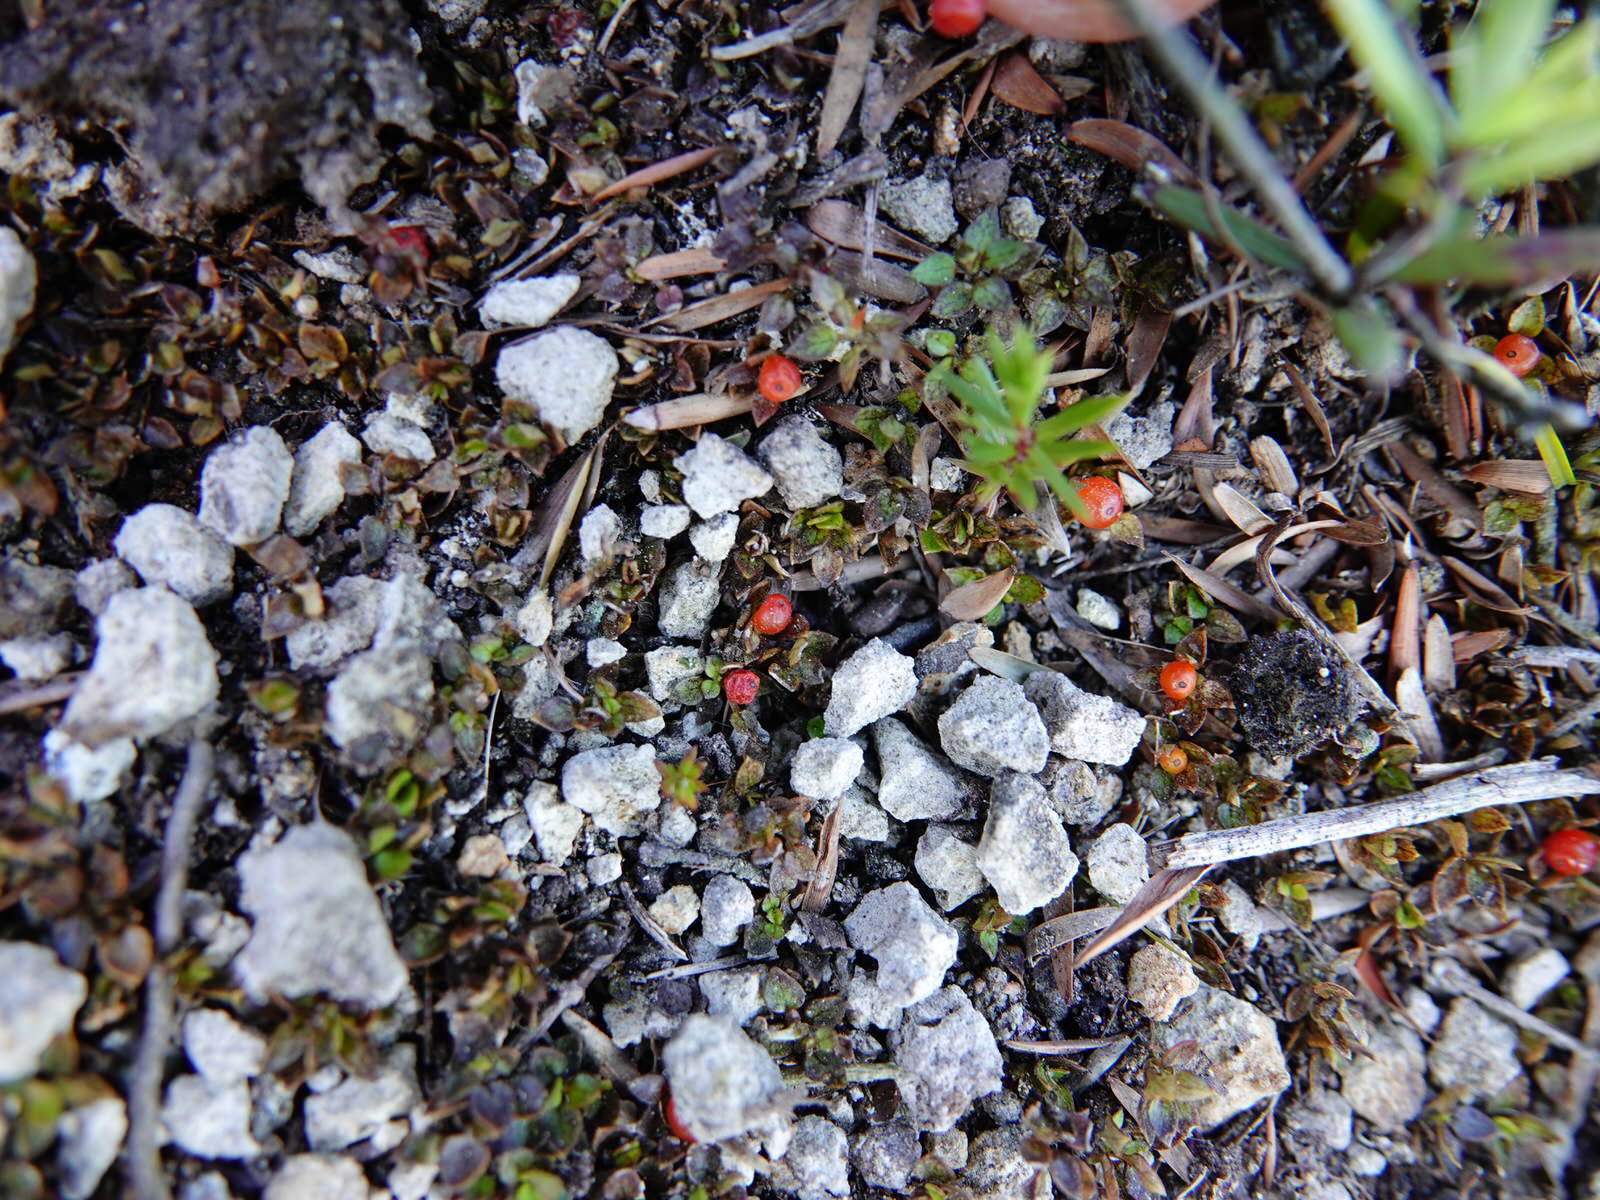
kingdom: Plantae
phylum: Tracheophyta
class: Magnoliopsida
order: Gentianales
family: Rubiaceae
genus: Nertera
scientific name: Nertera granadensis
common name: Beadplant
